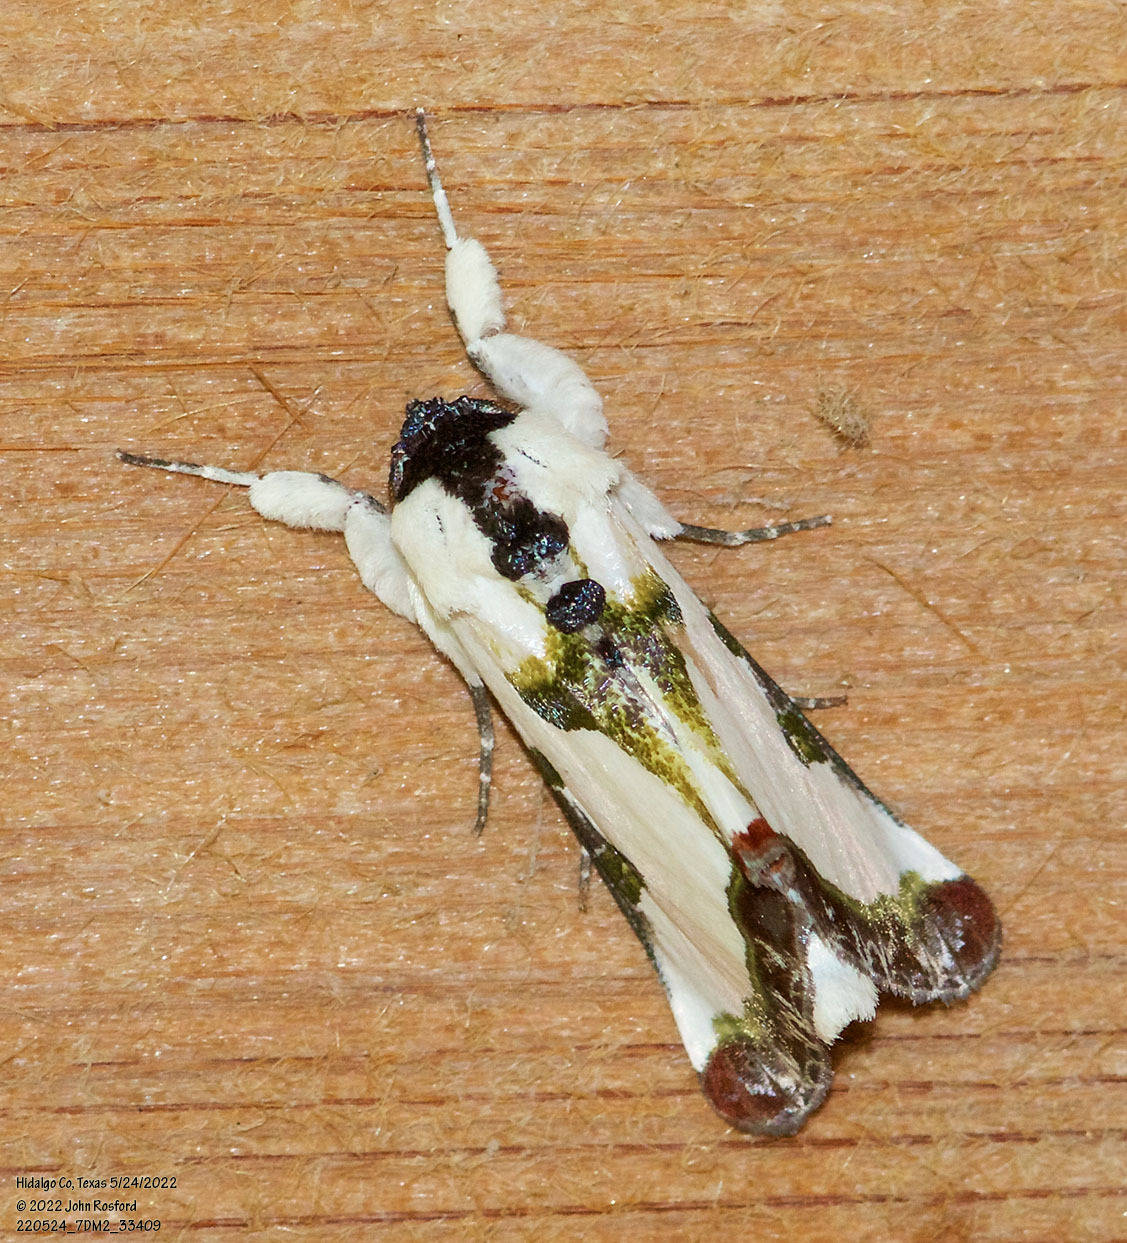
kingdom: Animalia
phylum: Arthropoda
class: Insecta
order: Lepidoptera
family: Noctuidae
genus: Xerociris
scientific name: Xerociris wilsonii
